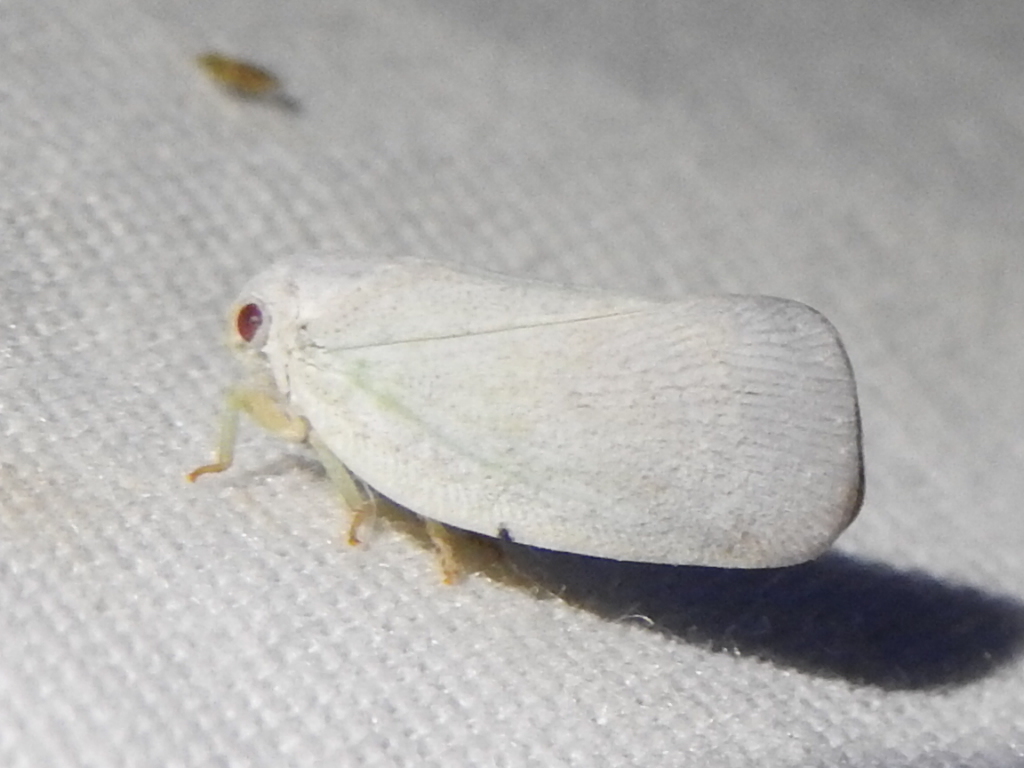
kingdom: Animalia
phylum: Arthropoda
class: Insecta
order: Hemiptera
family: Flatidae
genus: Flatormenis
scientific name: Flatormenis saucia
